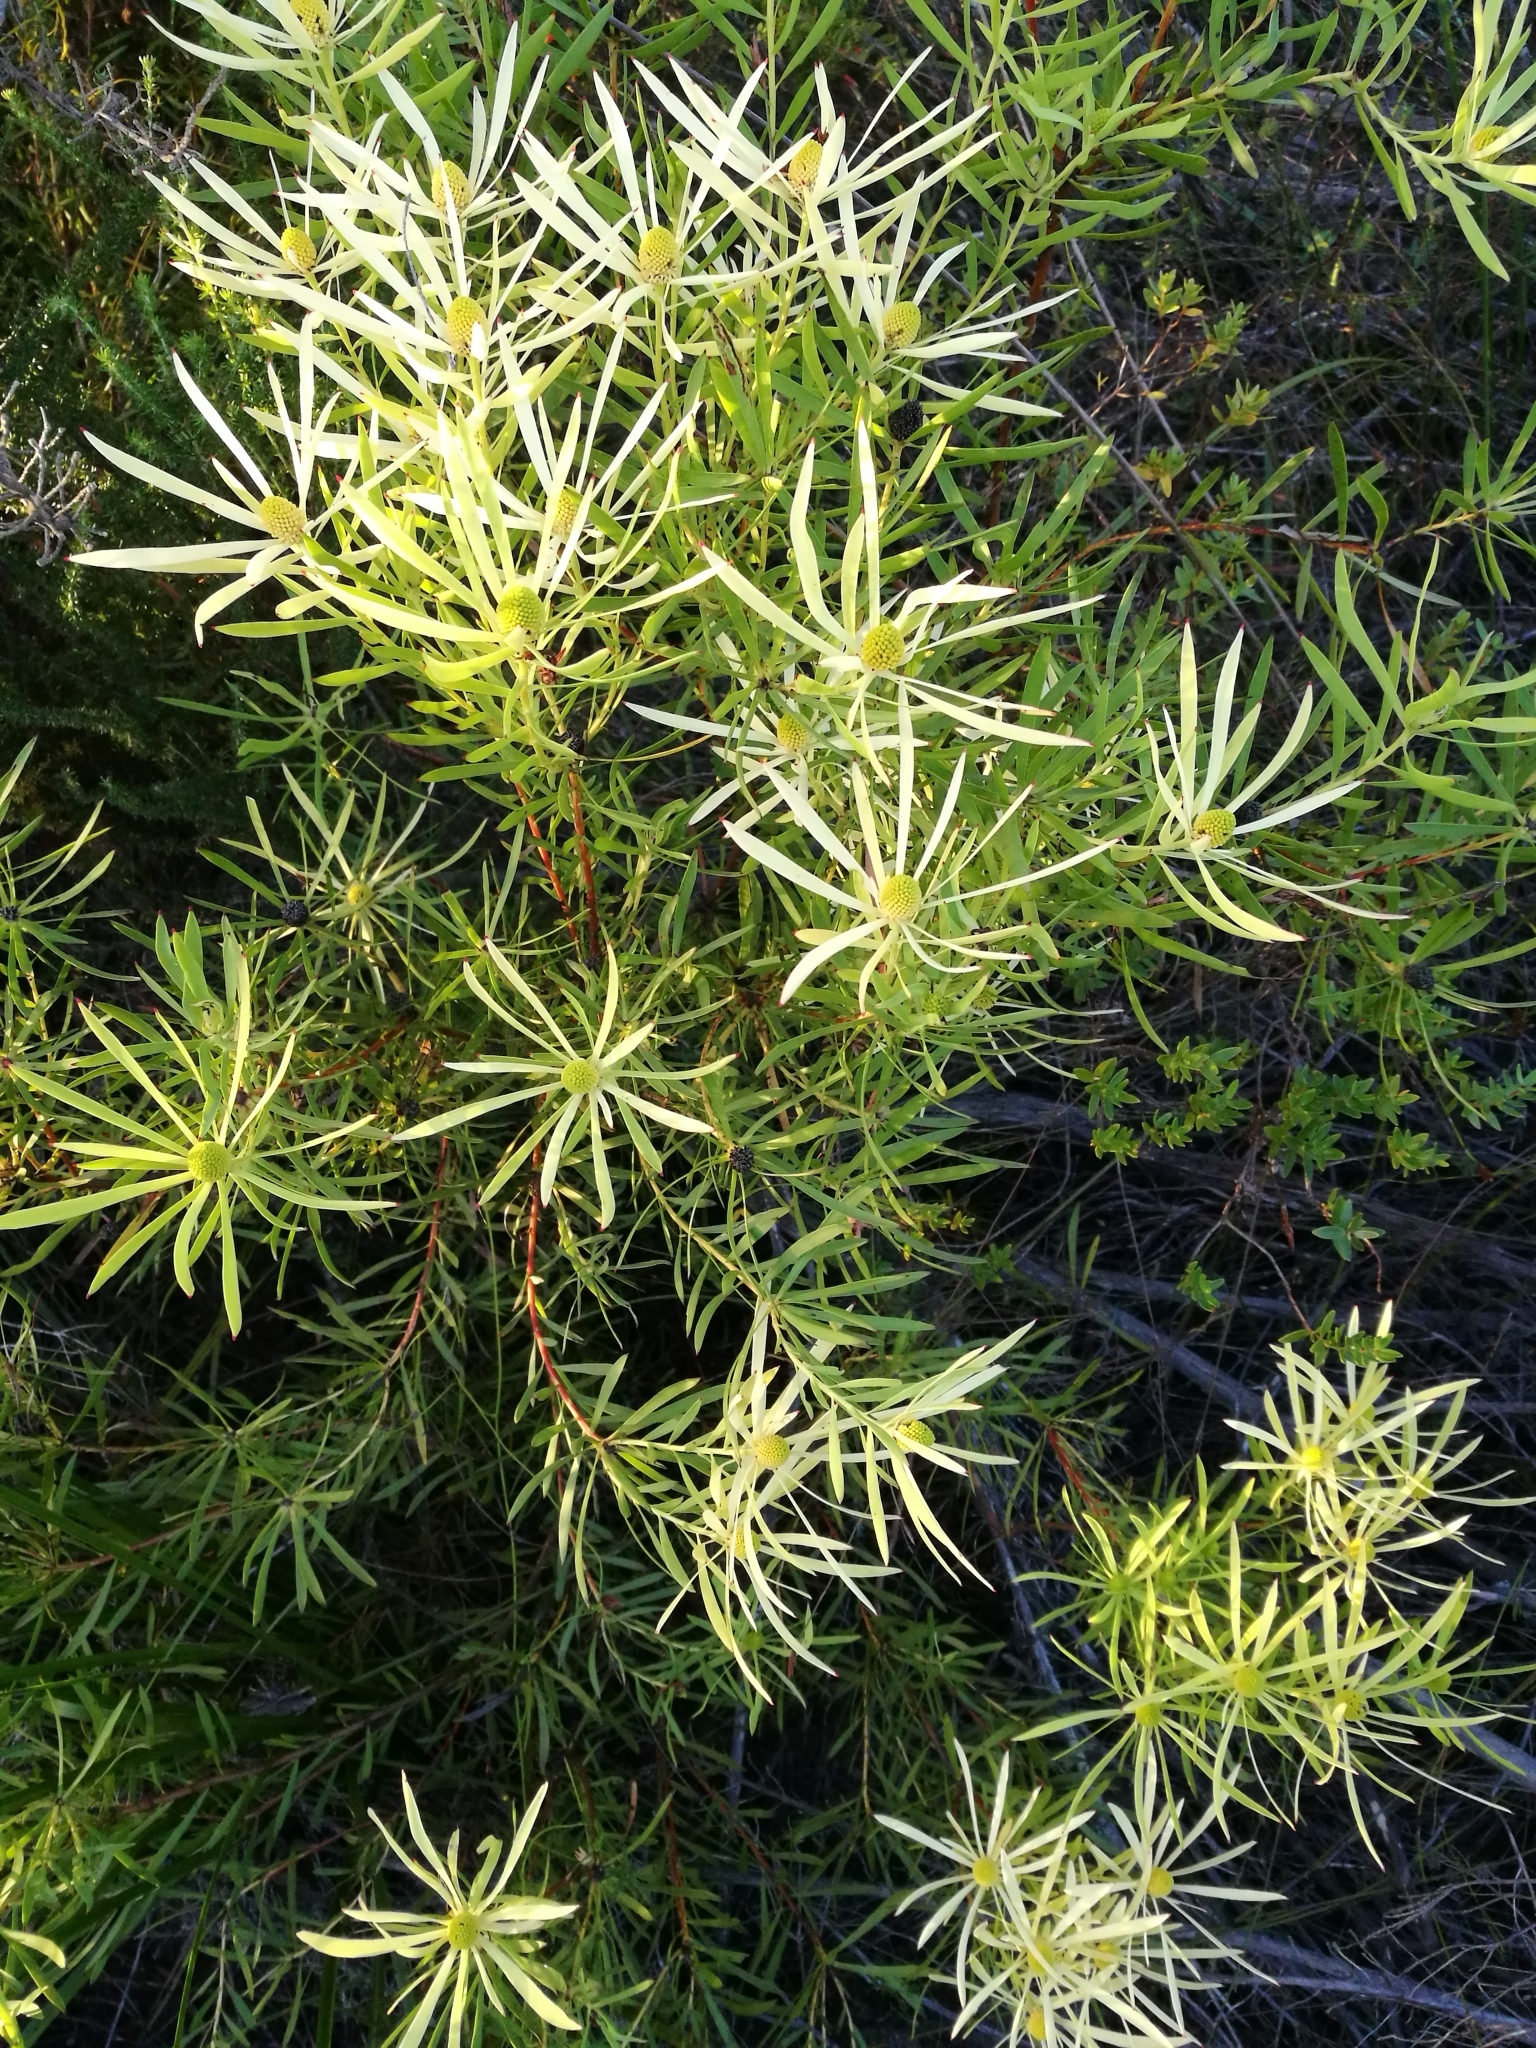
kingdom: Plantae
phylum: Tracheophyta
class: Magnoliopsida
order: Proteales
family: Proteaceae
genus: Leucadendron
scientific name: Leucadendron salignum
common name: Common sunshine conebush
